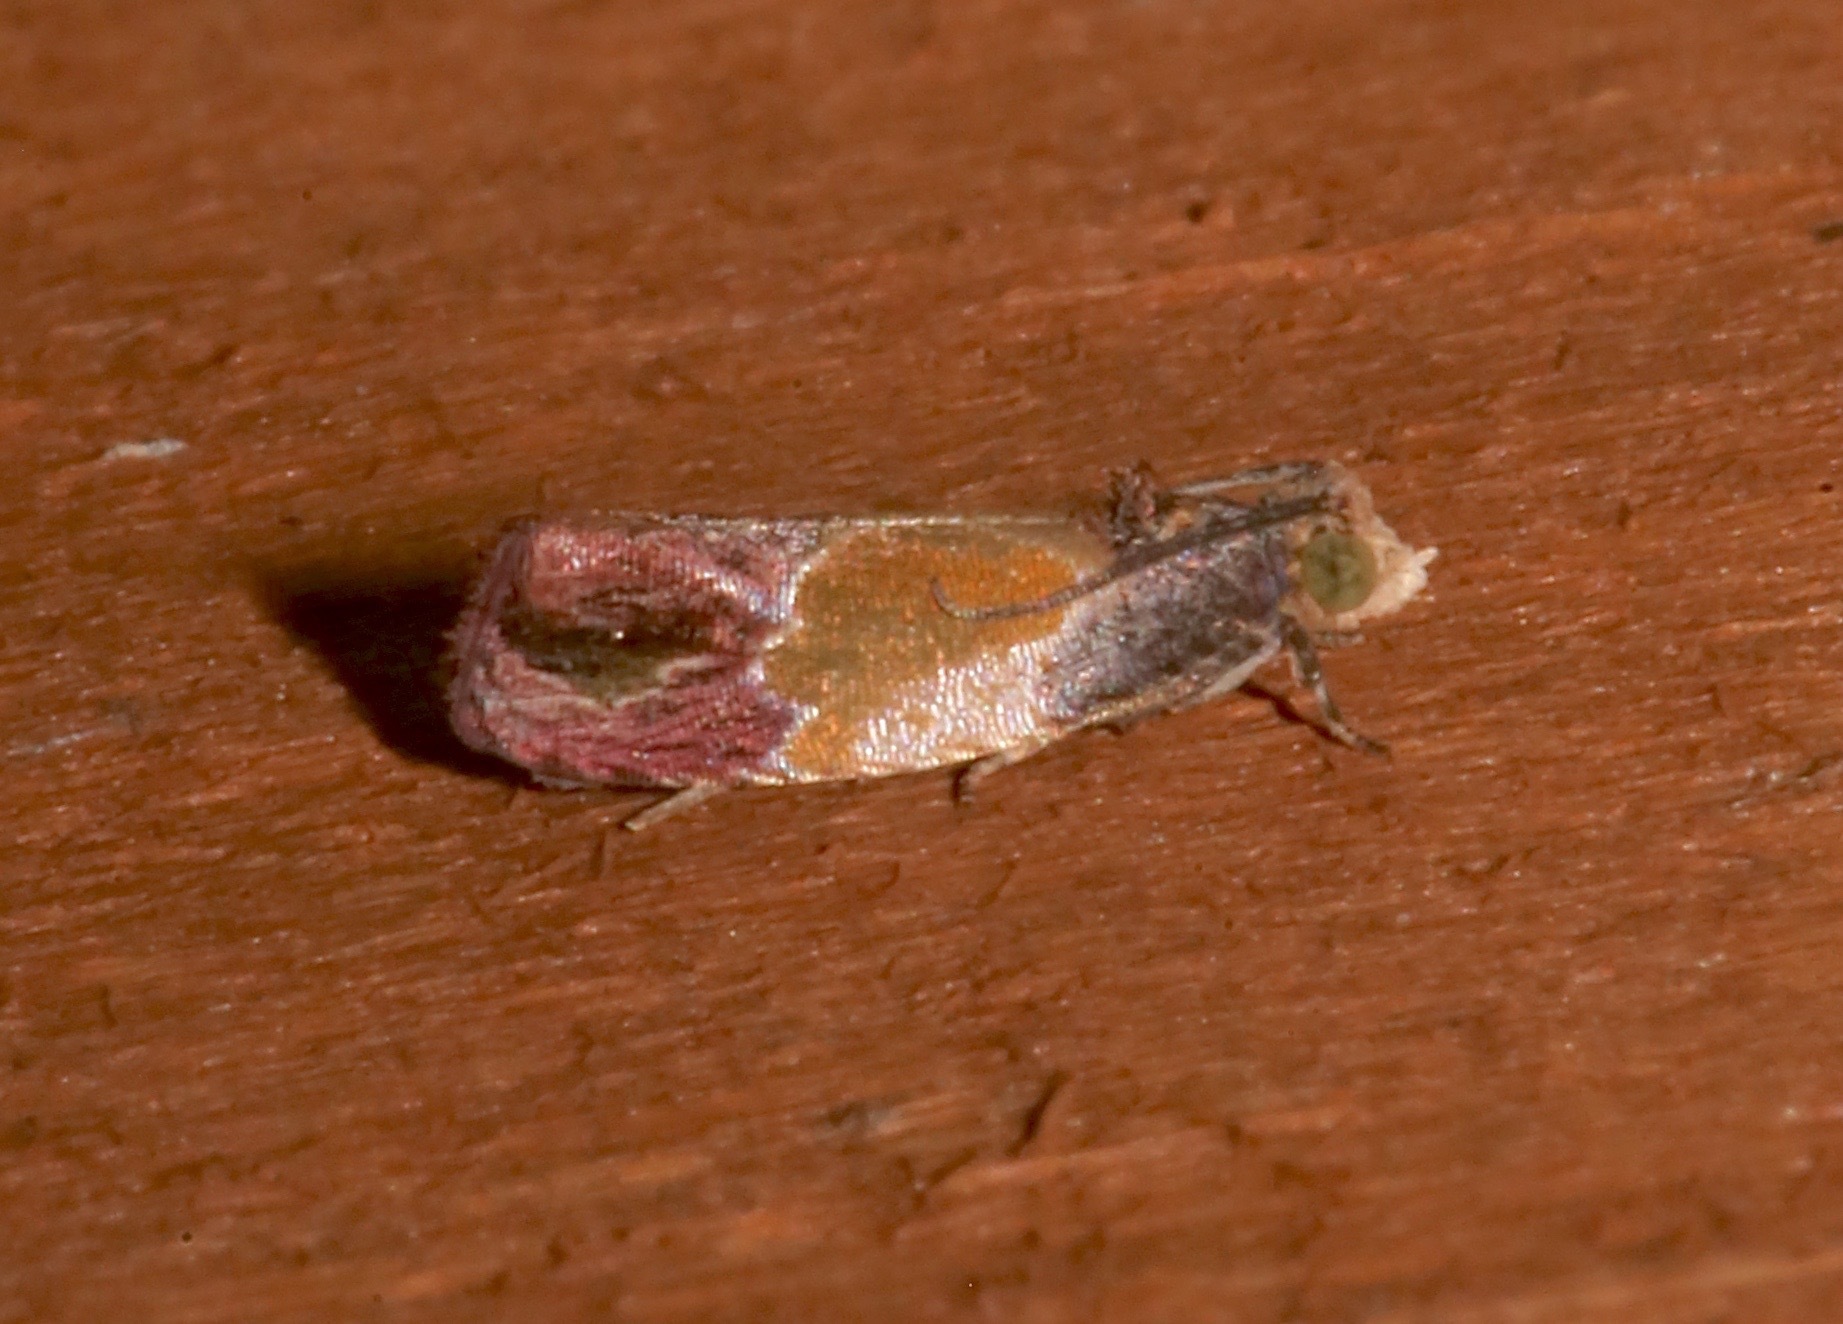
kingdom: Animalia
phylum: Arthropoda
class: Insecta
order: Lepidoptera
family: Tortricidae
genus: Eumarozia
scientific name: Eumarozia malachitana
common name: Sculptured moth
